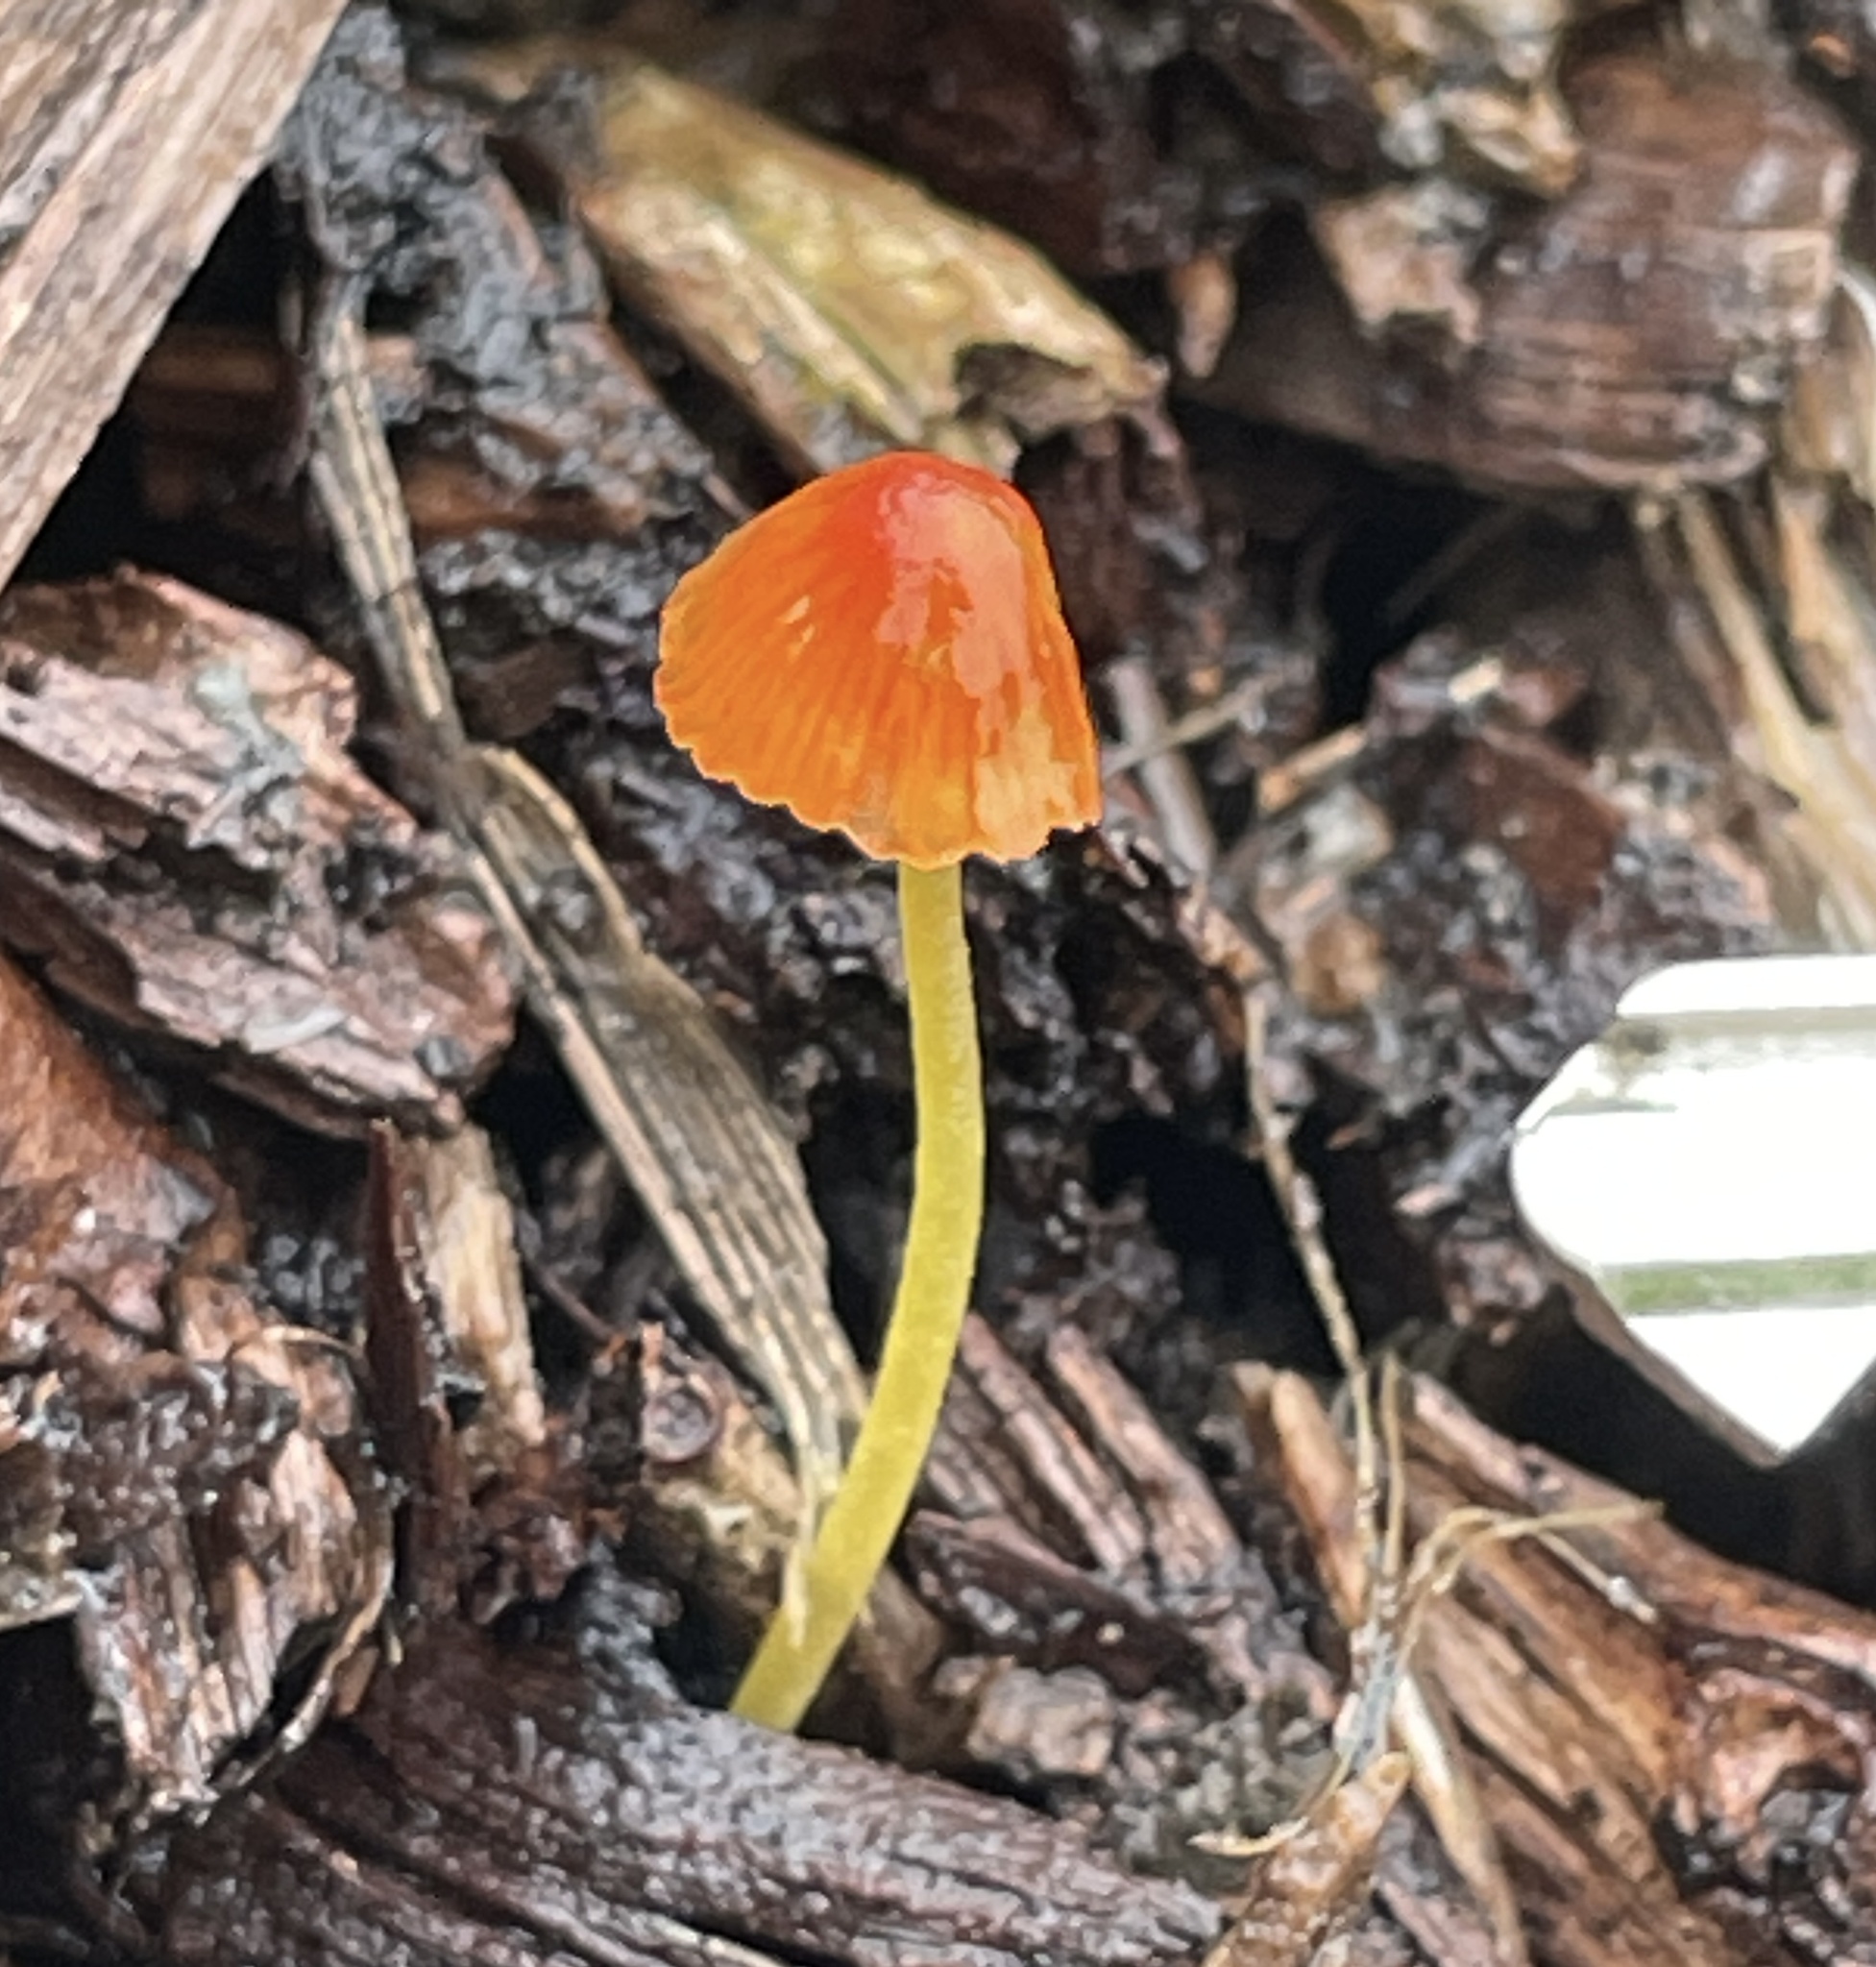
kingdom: Fungi
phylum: Basidiomycota
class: Agaricomycetes
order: Agaricales
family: Mycenaceae
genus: Mycena
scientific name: Mycena acicula
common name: Orange bonnet
